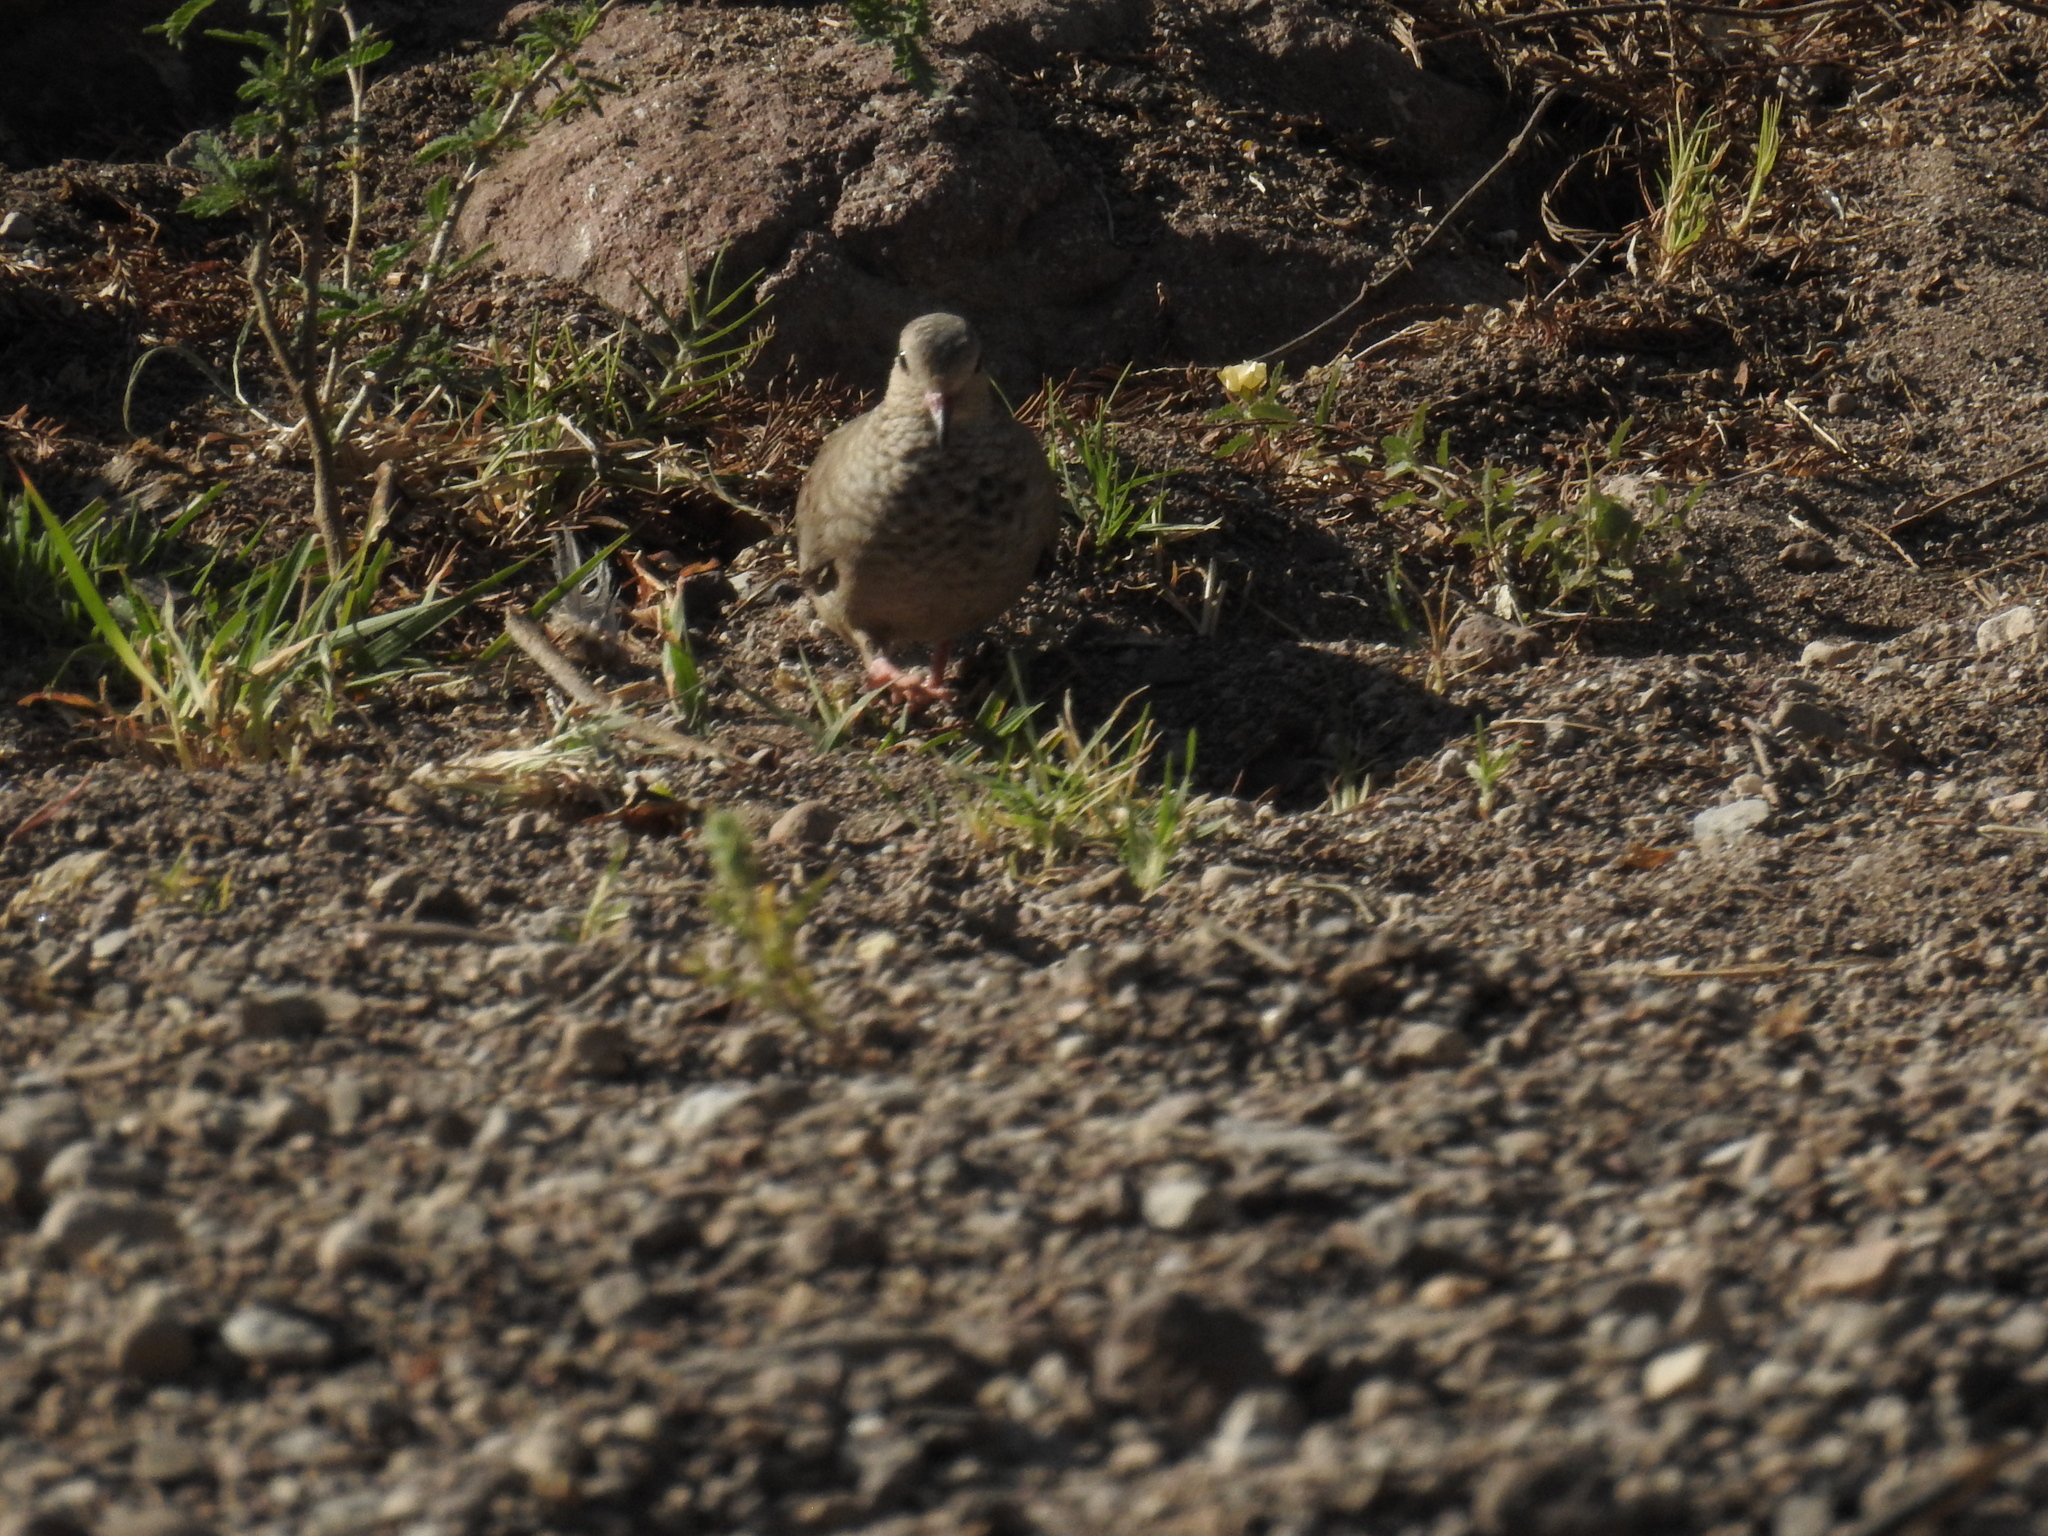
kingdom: Animalia
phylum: Chordata
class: Aves
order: Columbiformes
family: Columbidae
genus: Columbina
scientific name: Columbina passerina
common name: Common ground-dove
